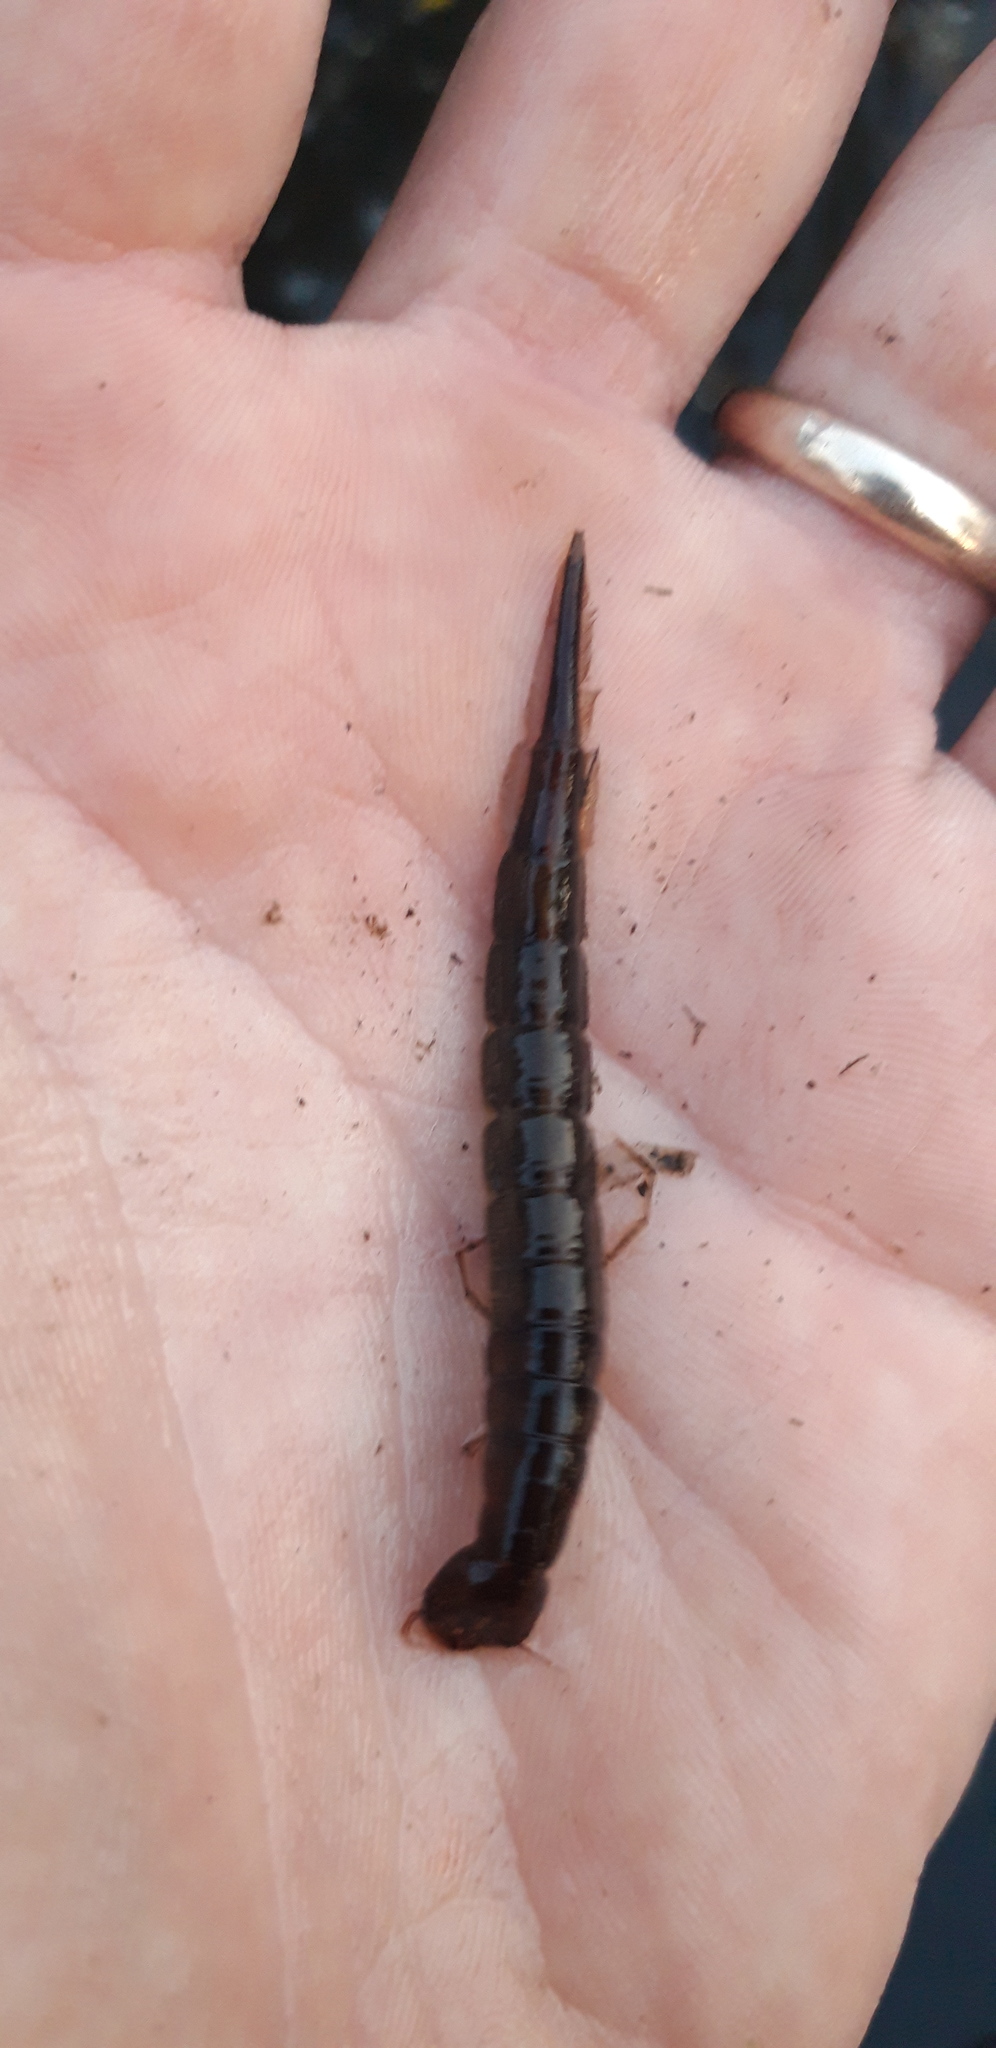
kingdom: Animalia
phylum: Arthropoda
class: Insecta
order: Coleoptera
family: Dytiscidae
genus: Cybister
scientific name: Cybister lateralimarginalis
